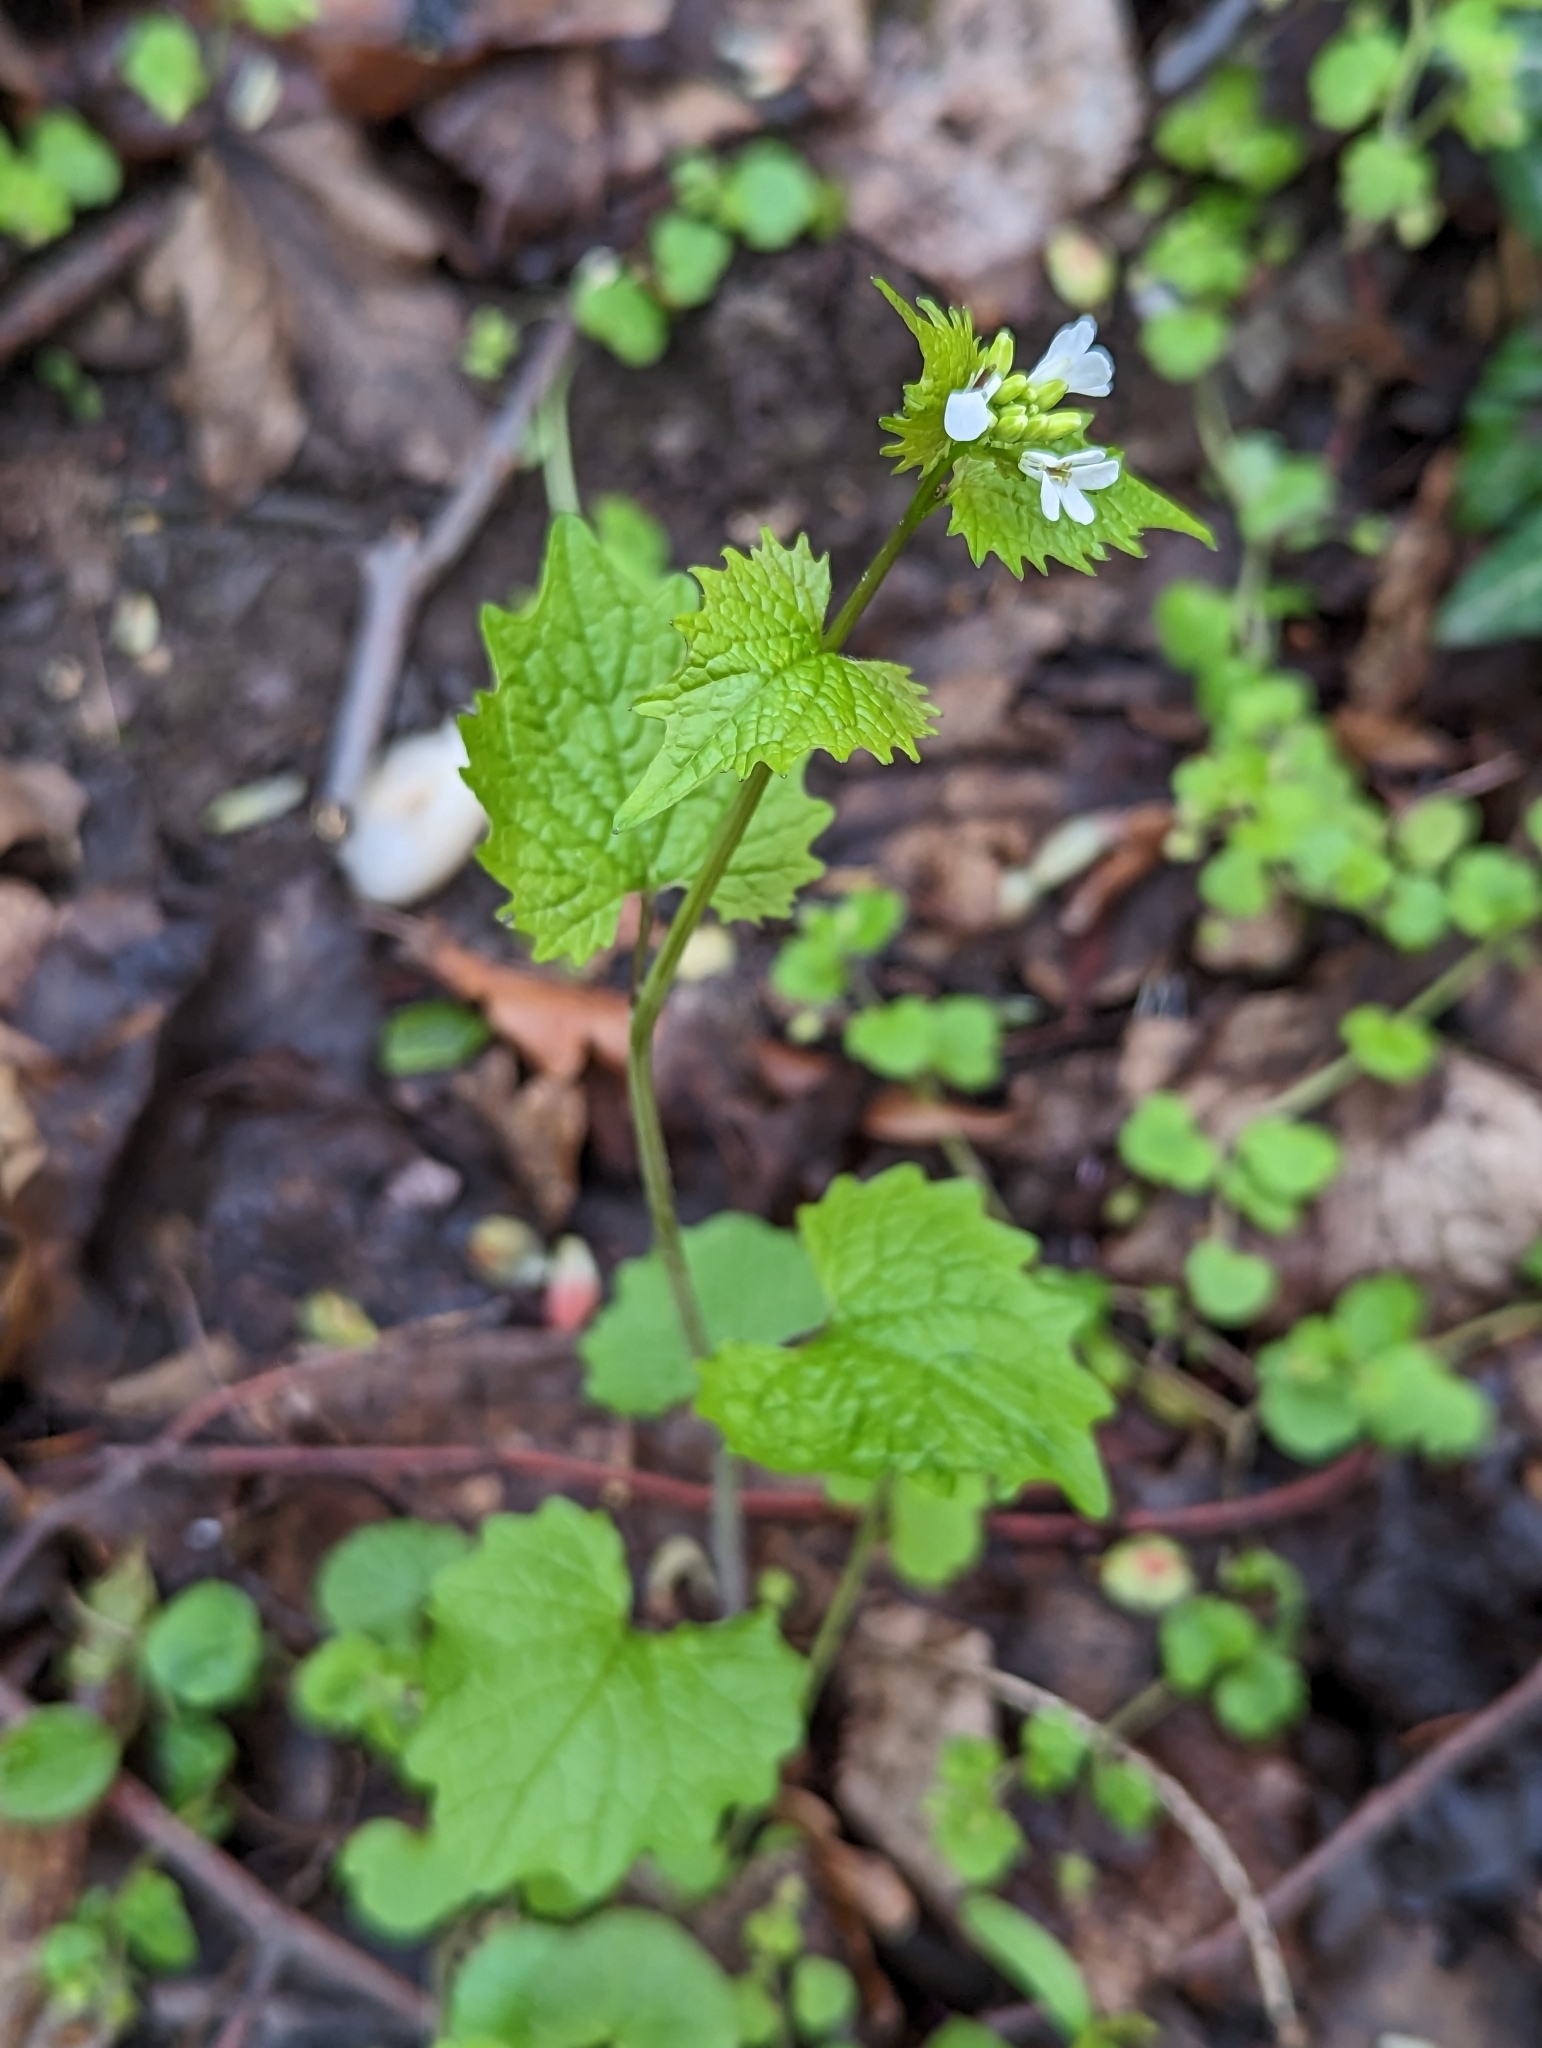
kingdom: Plantae
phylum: Tracheophyta
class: Magnoliopsida
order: Brassicales
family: Brassicaceae
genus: Alliaria
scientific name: Alliaria petiolata
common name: Garlic mustard
